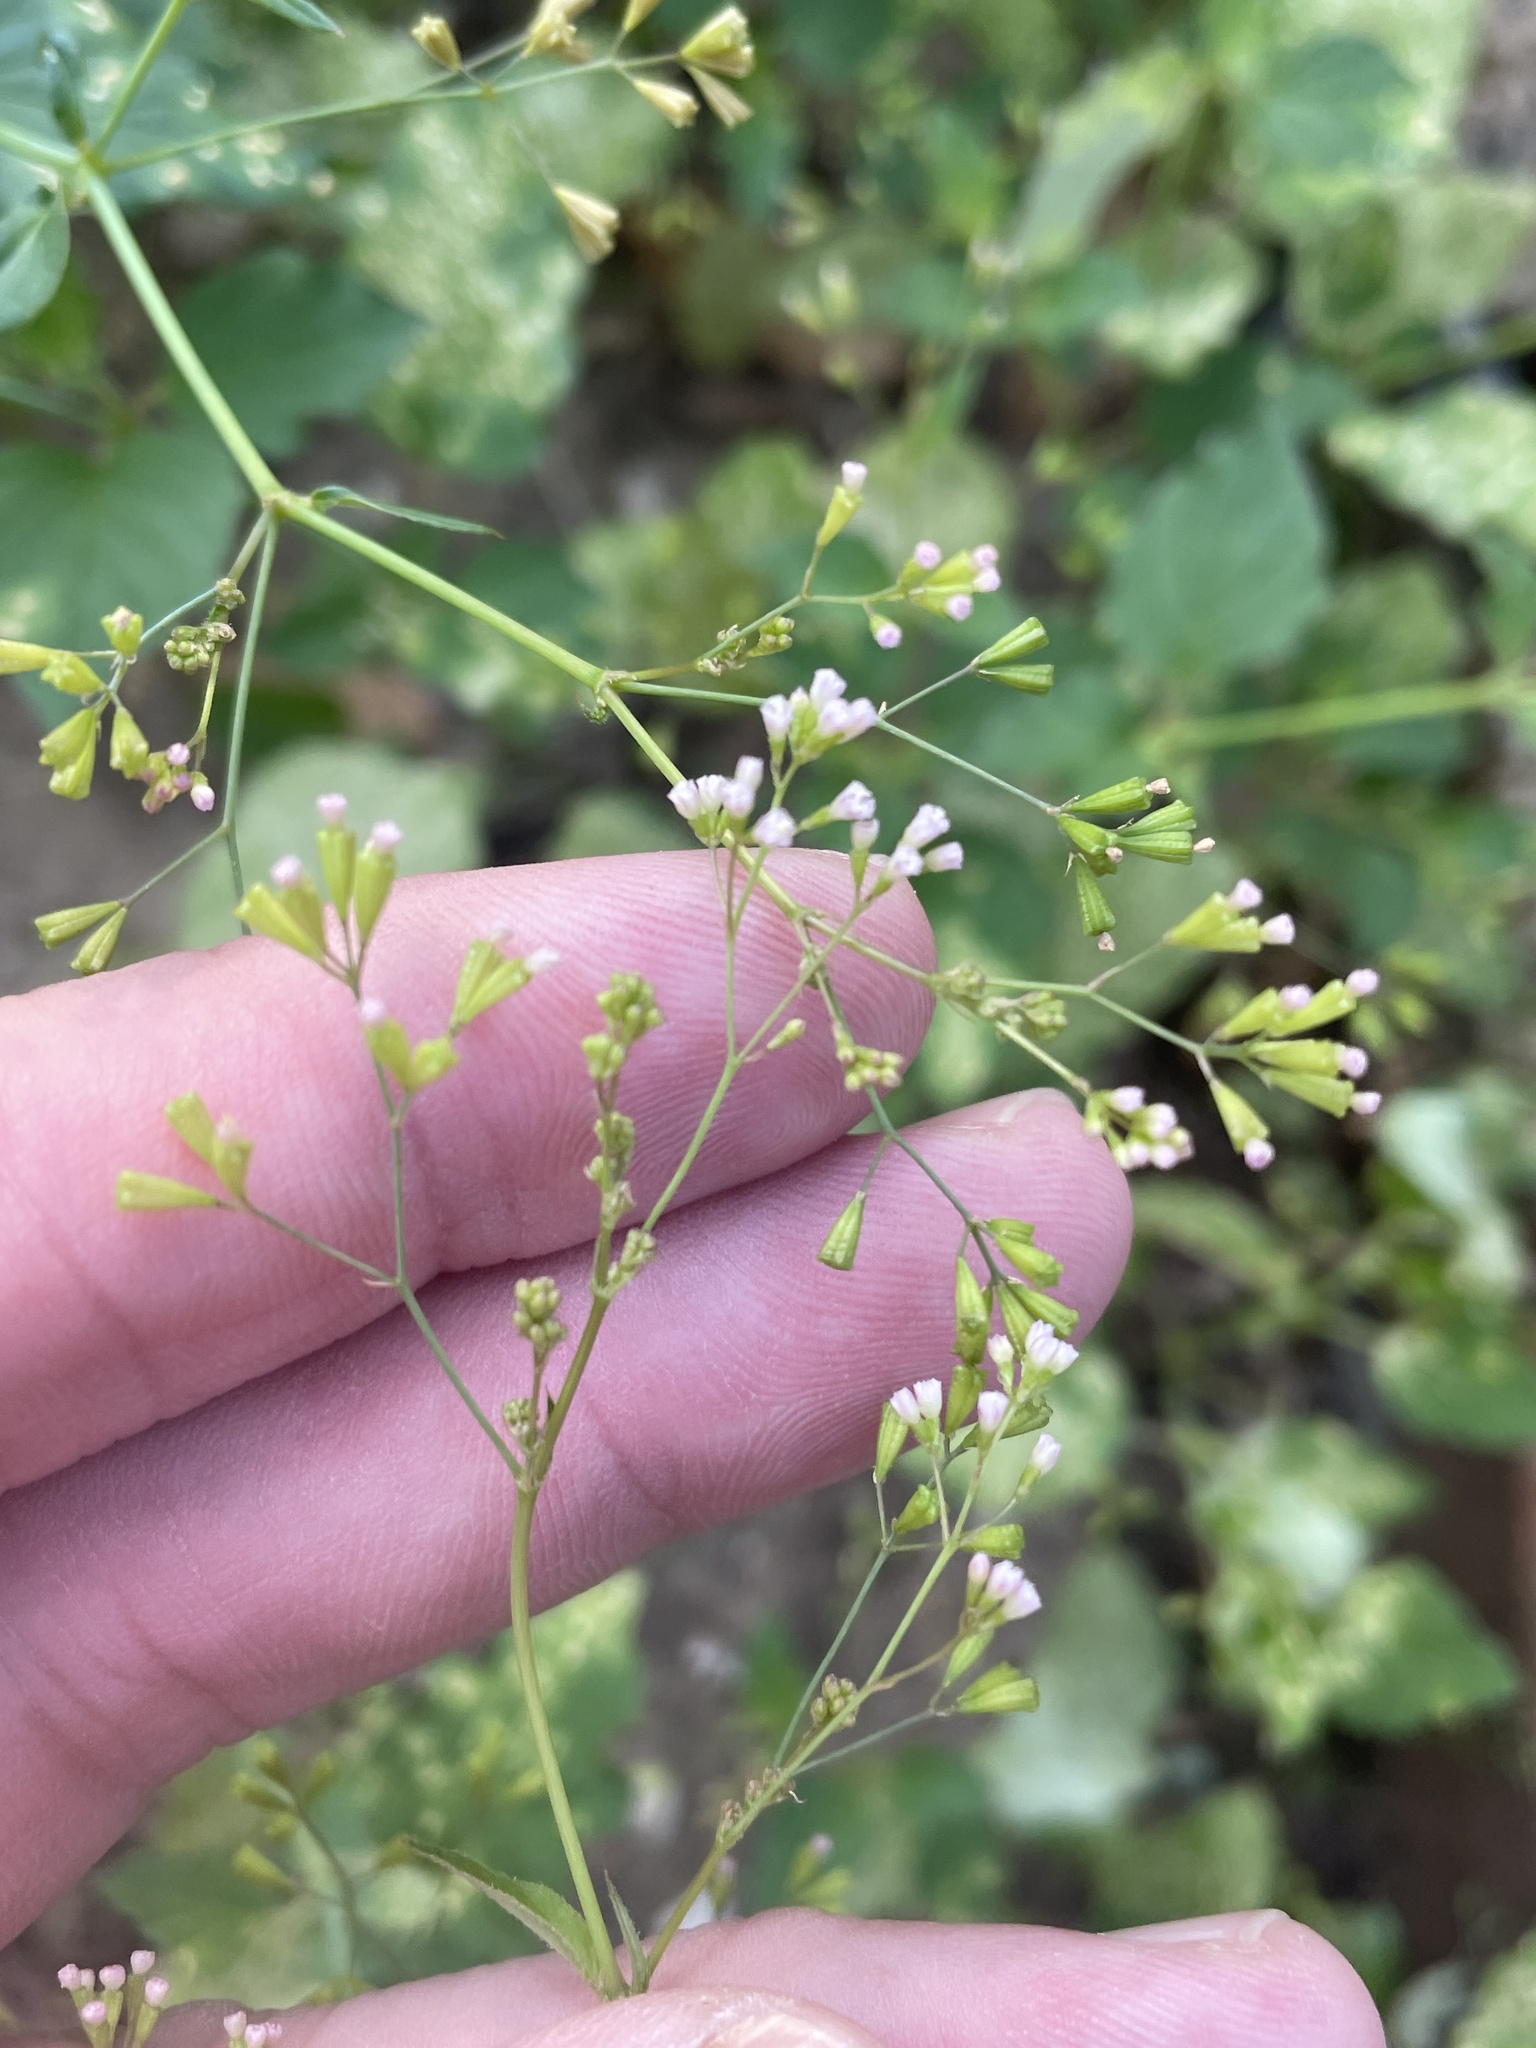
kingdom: Plantae
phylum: Tracheophyta
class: Magnoliopsida
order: Caryophyllales
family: Nyctaginaceae
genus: Boerhavia
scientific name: Boerhavia erecta
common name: Erect spiderling
